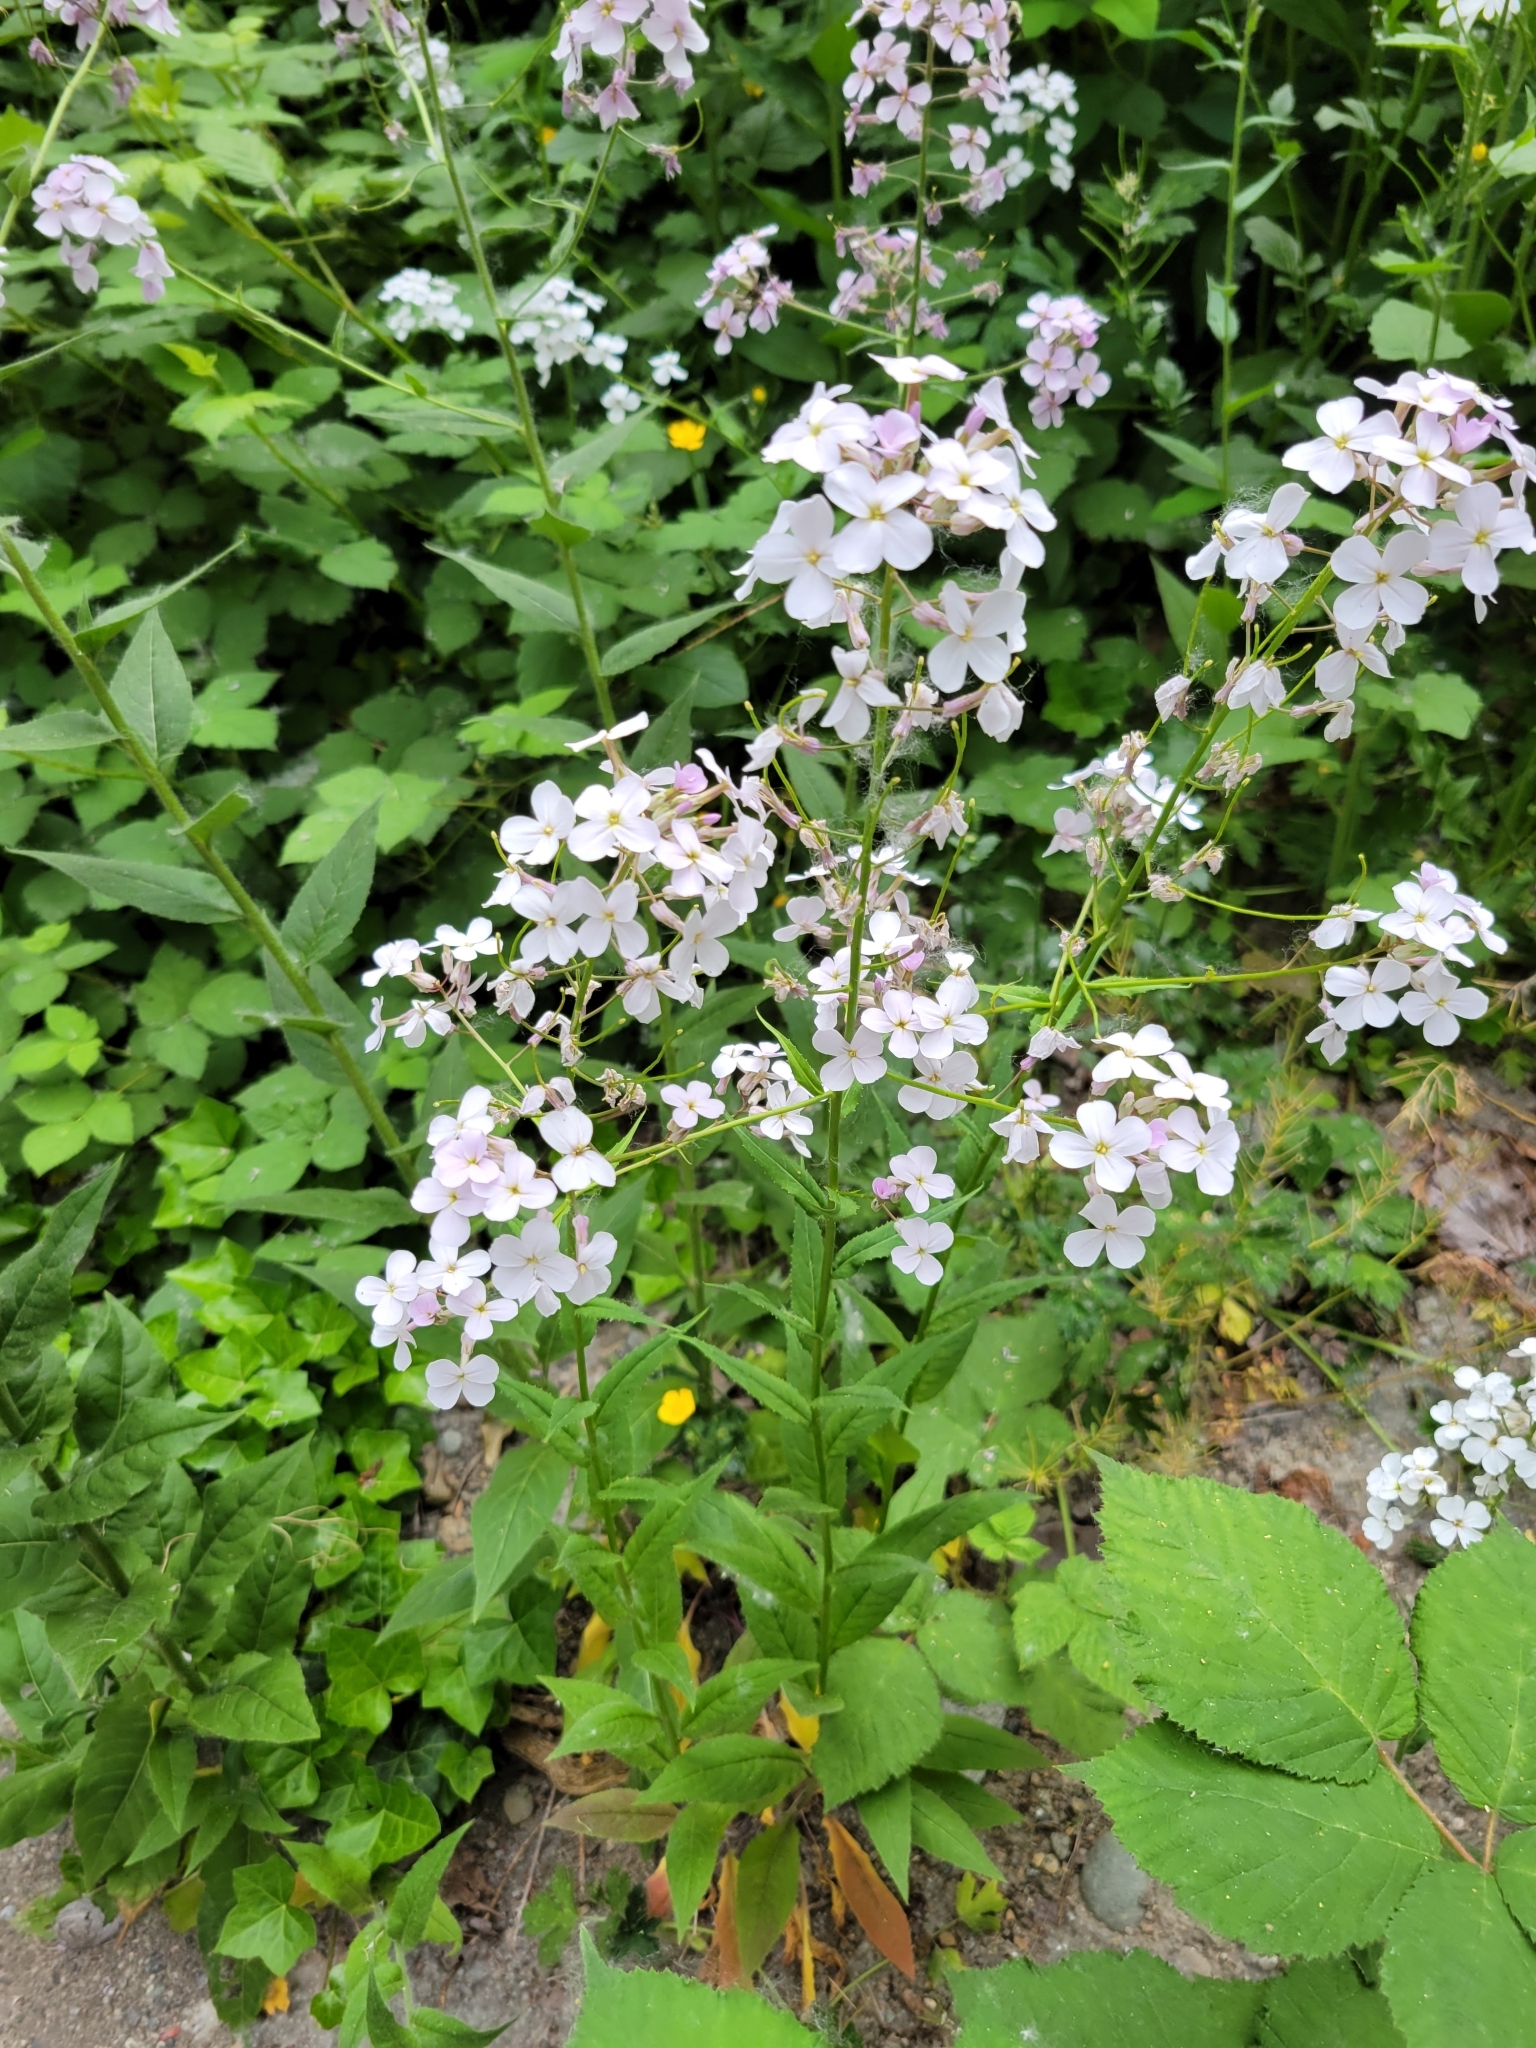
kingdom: Plantae
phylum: Tracheophyta
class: Magnoliopsida
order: Brassicales
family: Brassicaceae
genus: Hesperis
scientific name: Hesperis matronalis
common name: Dame's-violet
